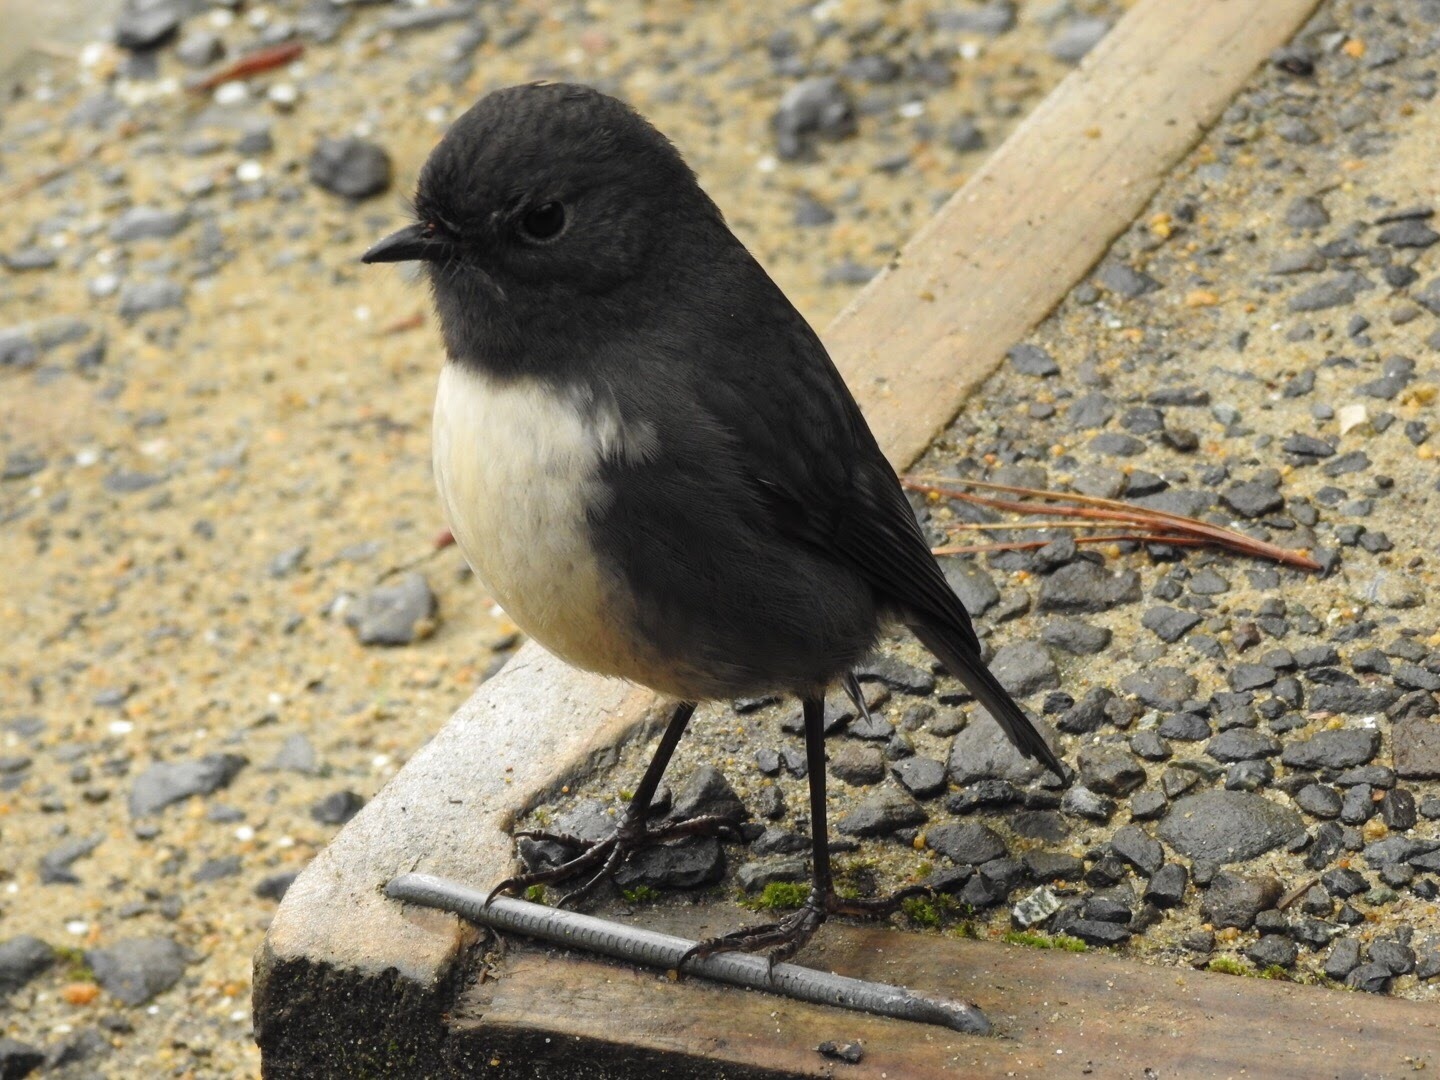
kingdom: Animalia
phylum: Chordata
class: Aves
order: Passeriformes
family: Petroicidae
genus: Petroica
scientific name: Petroica australis
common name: New zealand robin
